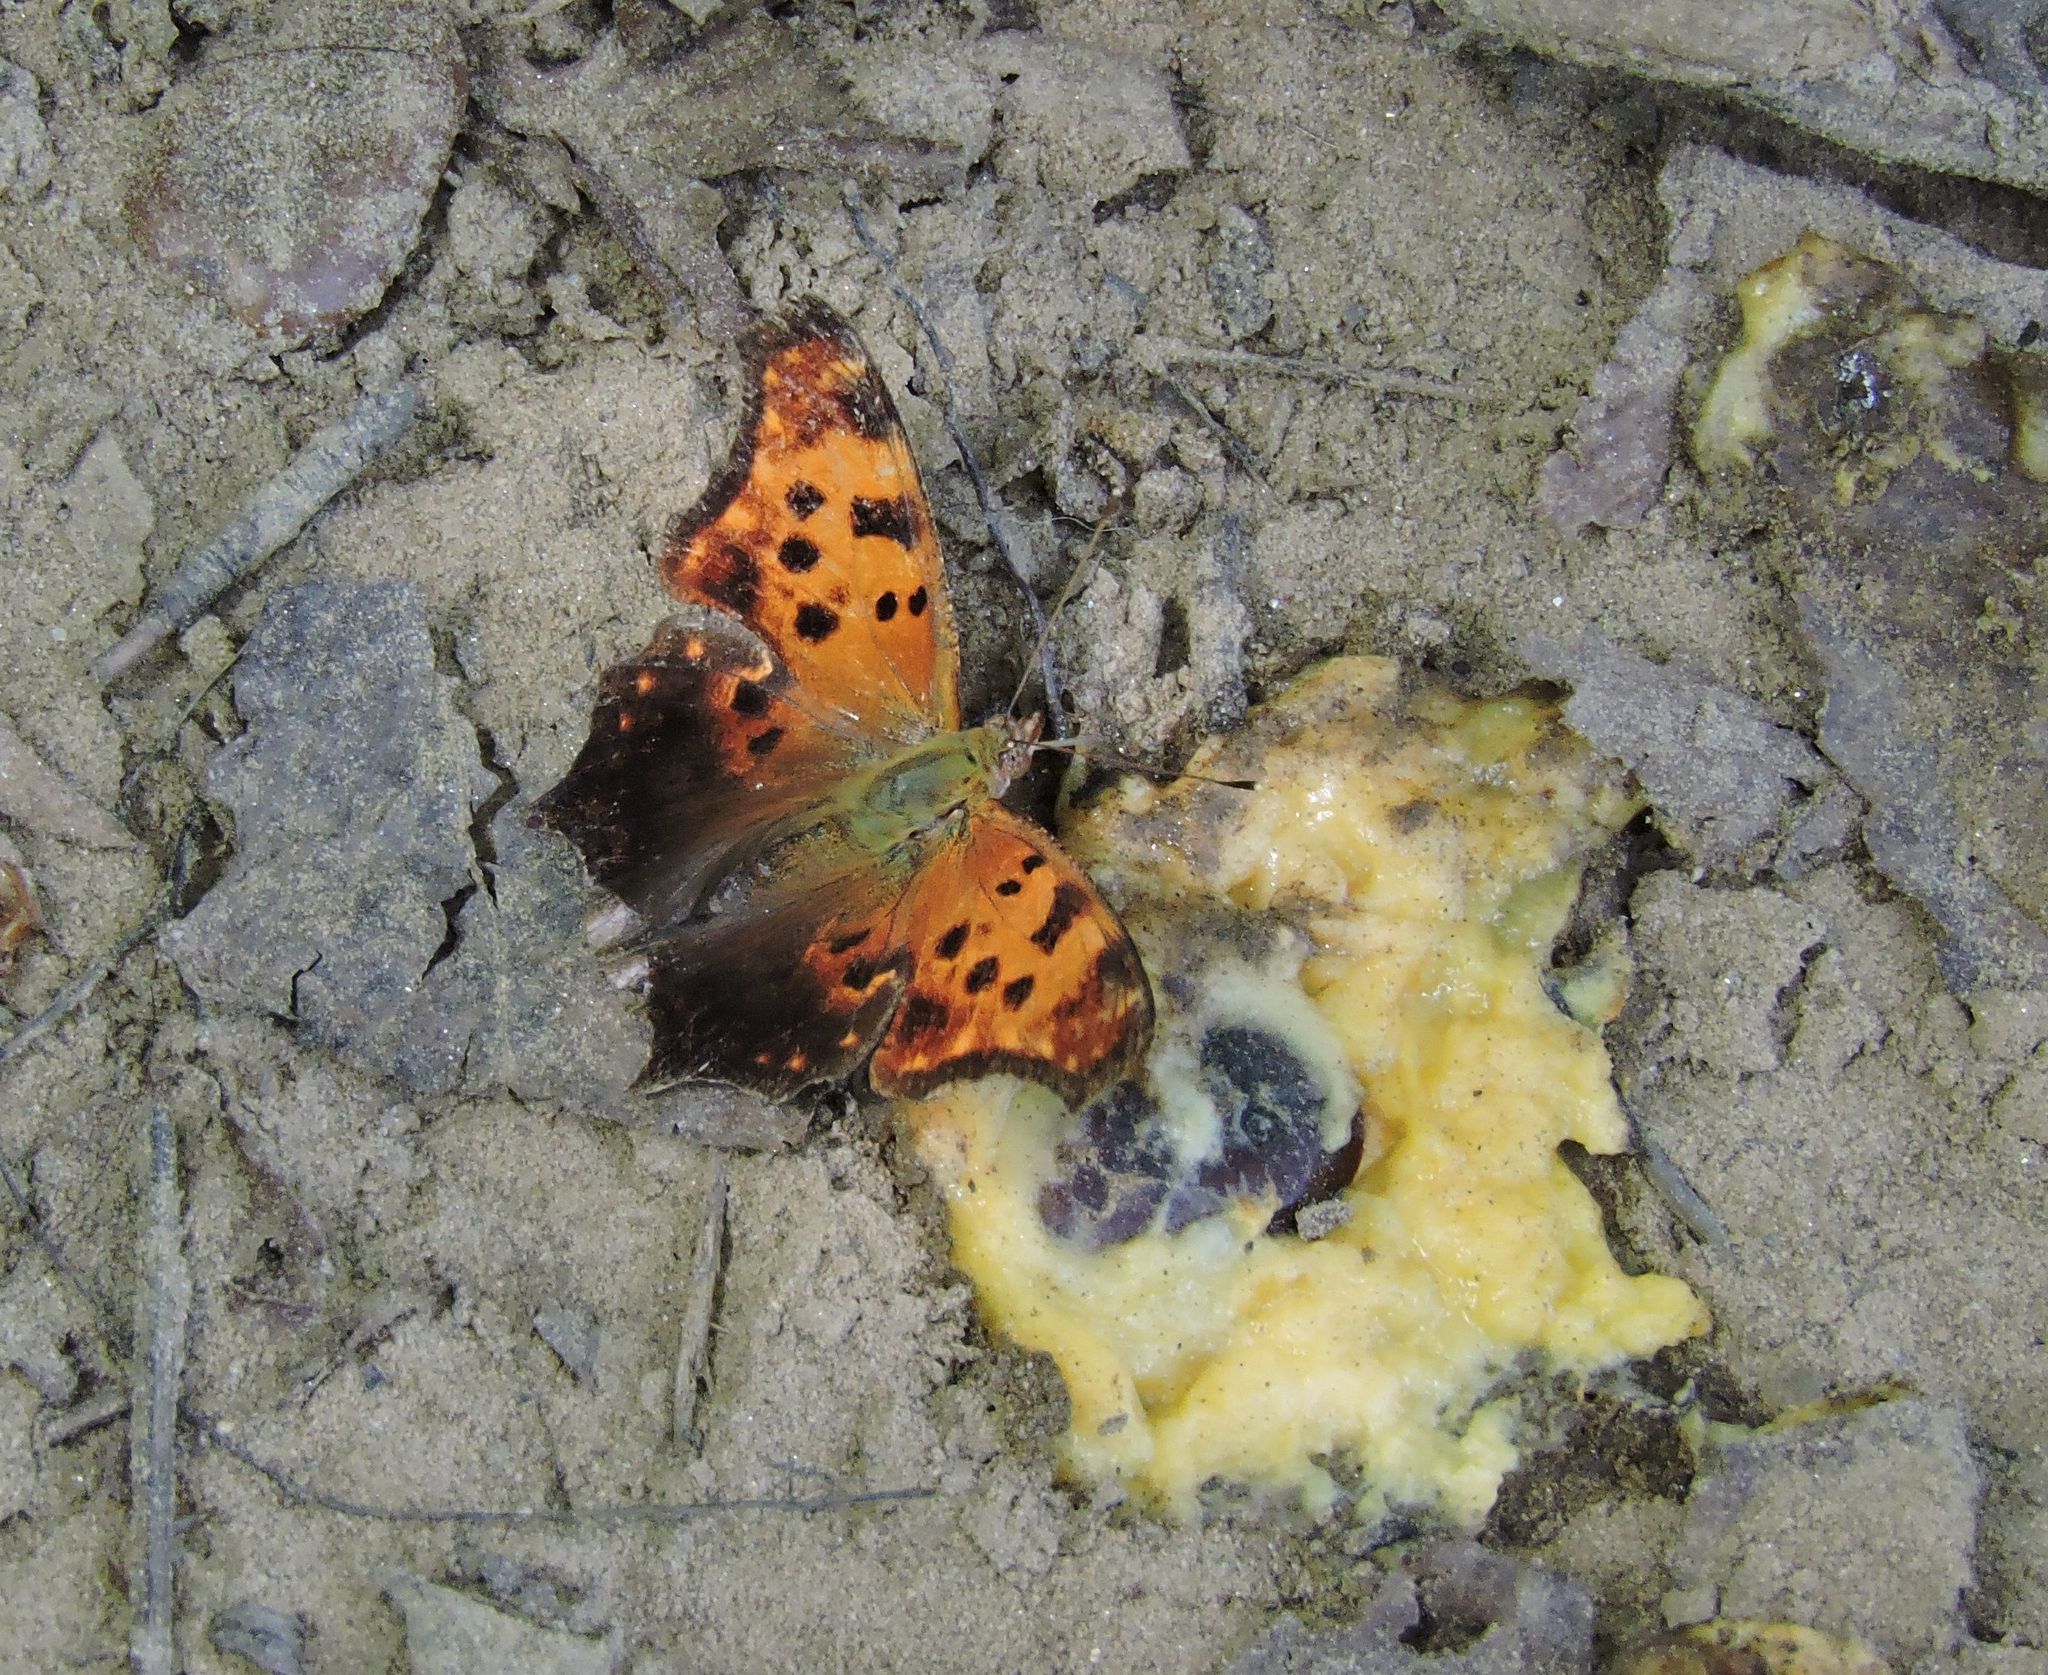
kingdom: Animalia
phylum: Arthropoda
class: Insecta
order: Lepidoptera
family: Nymphalidae
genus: Polygonia
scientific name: Polygonia comma
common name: Eastern comma
